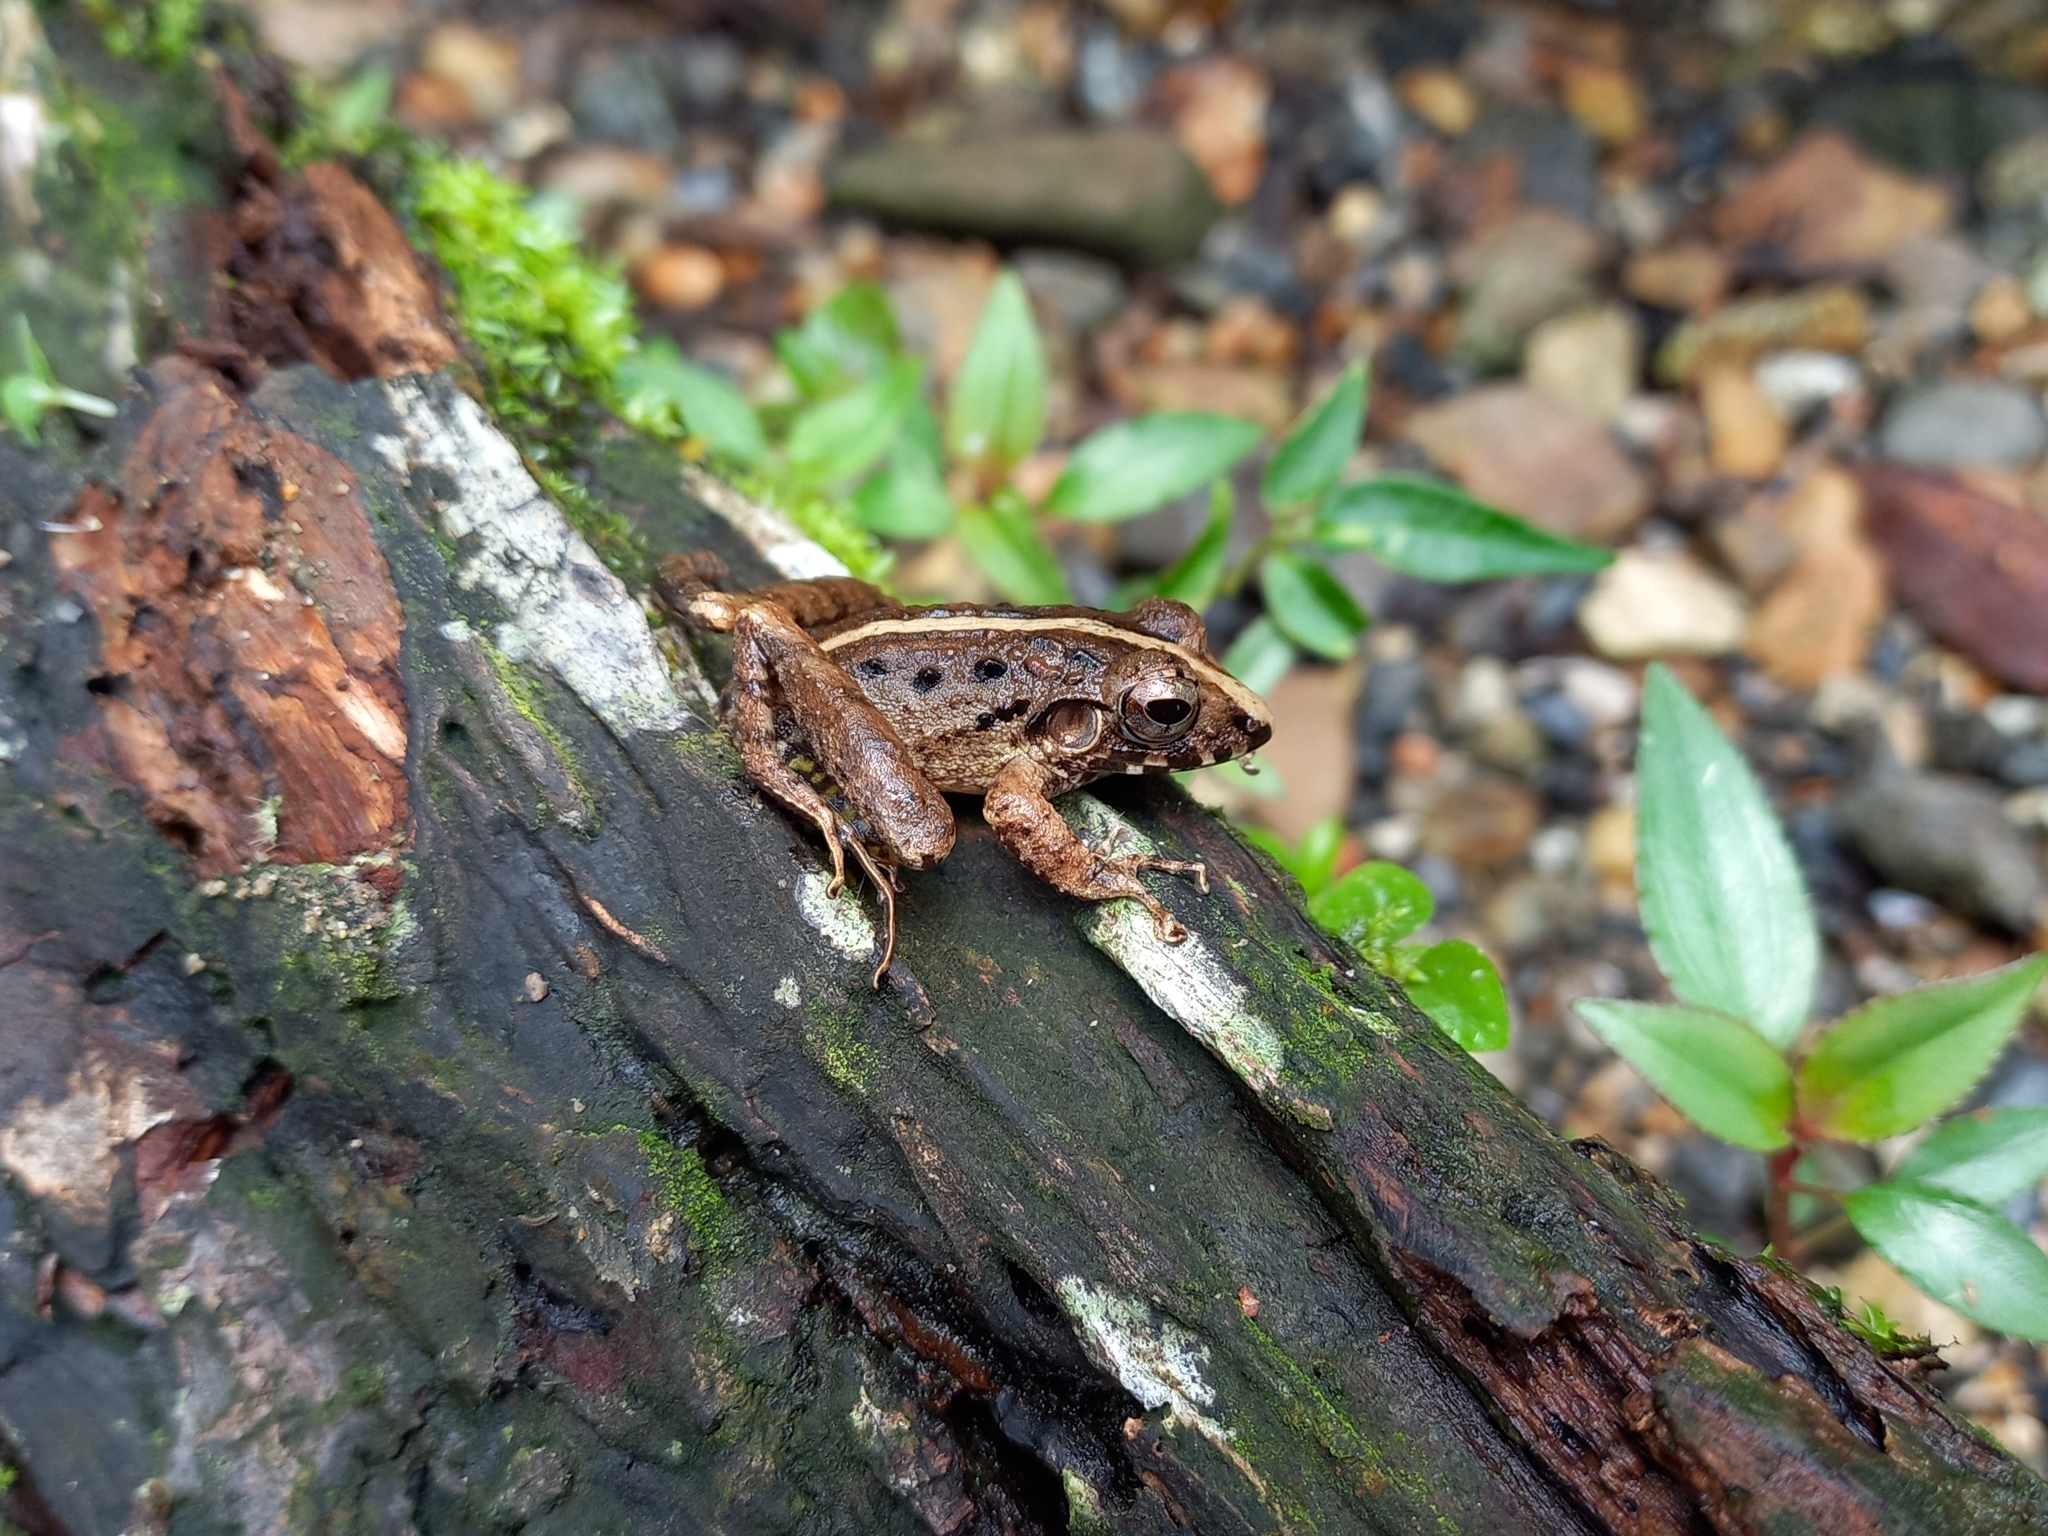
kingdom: Animalia
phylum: Chordata
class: Amphibia
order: Anura
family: Craugastoridae
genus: Craugastor
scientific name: Craugastor fitzingeri
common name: Fitzinger's robber frog
